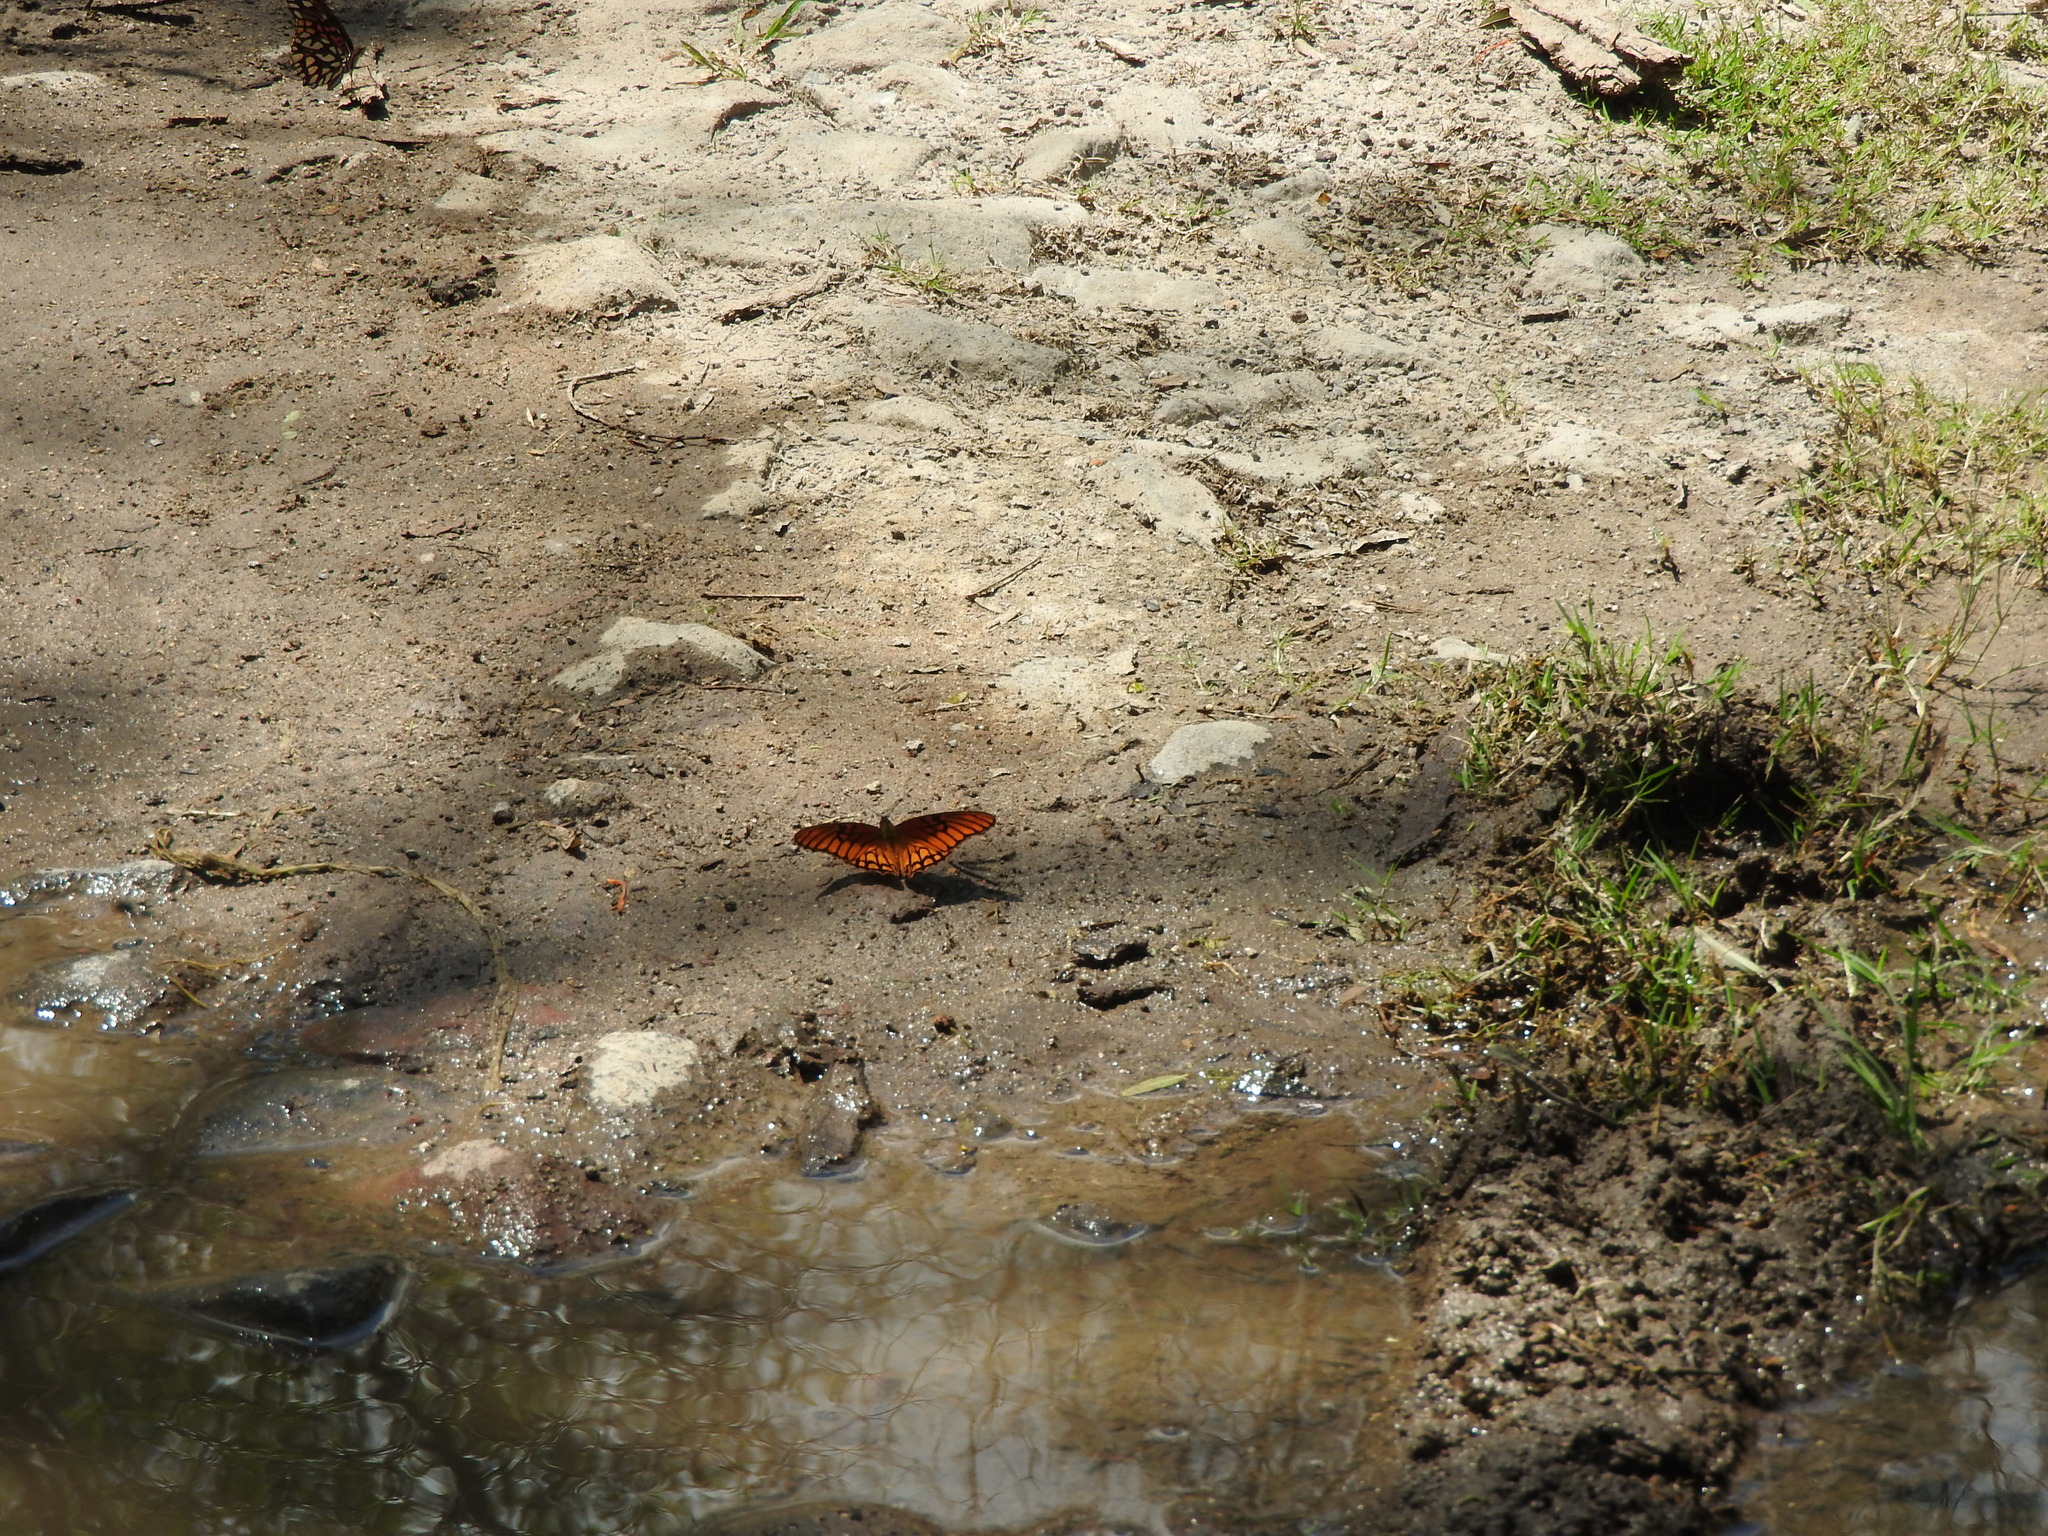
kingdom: Animalia
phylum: Arthropoda
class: Insecta
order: Lepidoptera
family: Nymphalidae
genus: Dione
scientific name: Dione moneta
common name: Mexican silverspot
